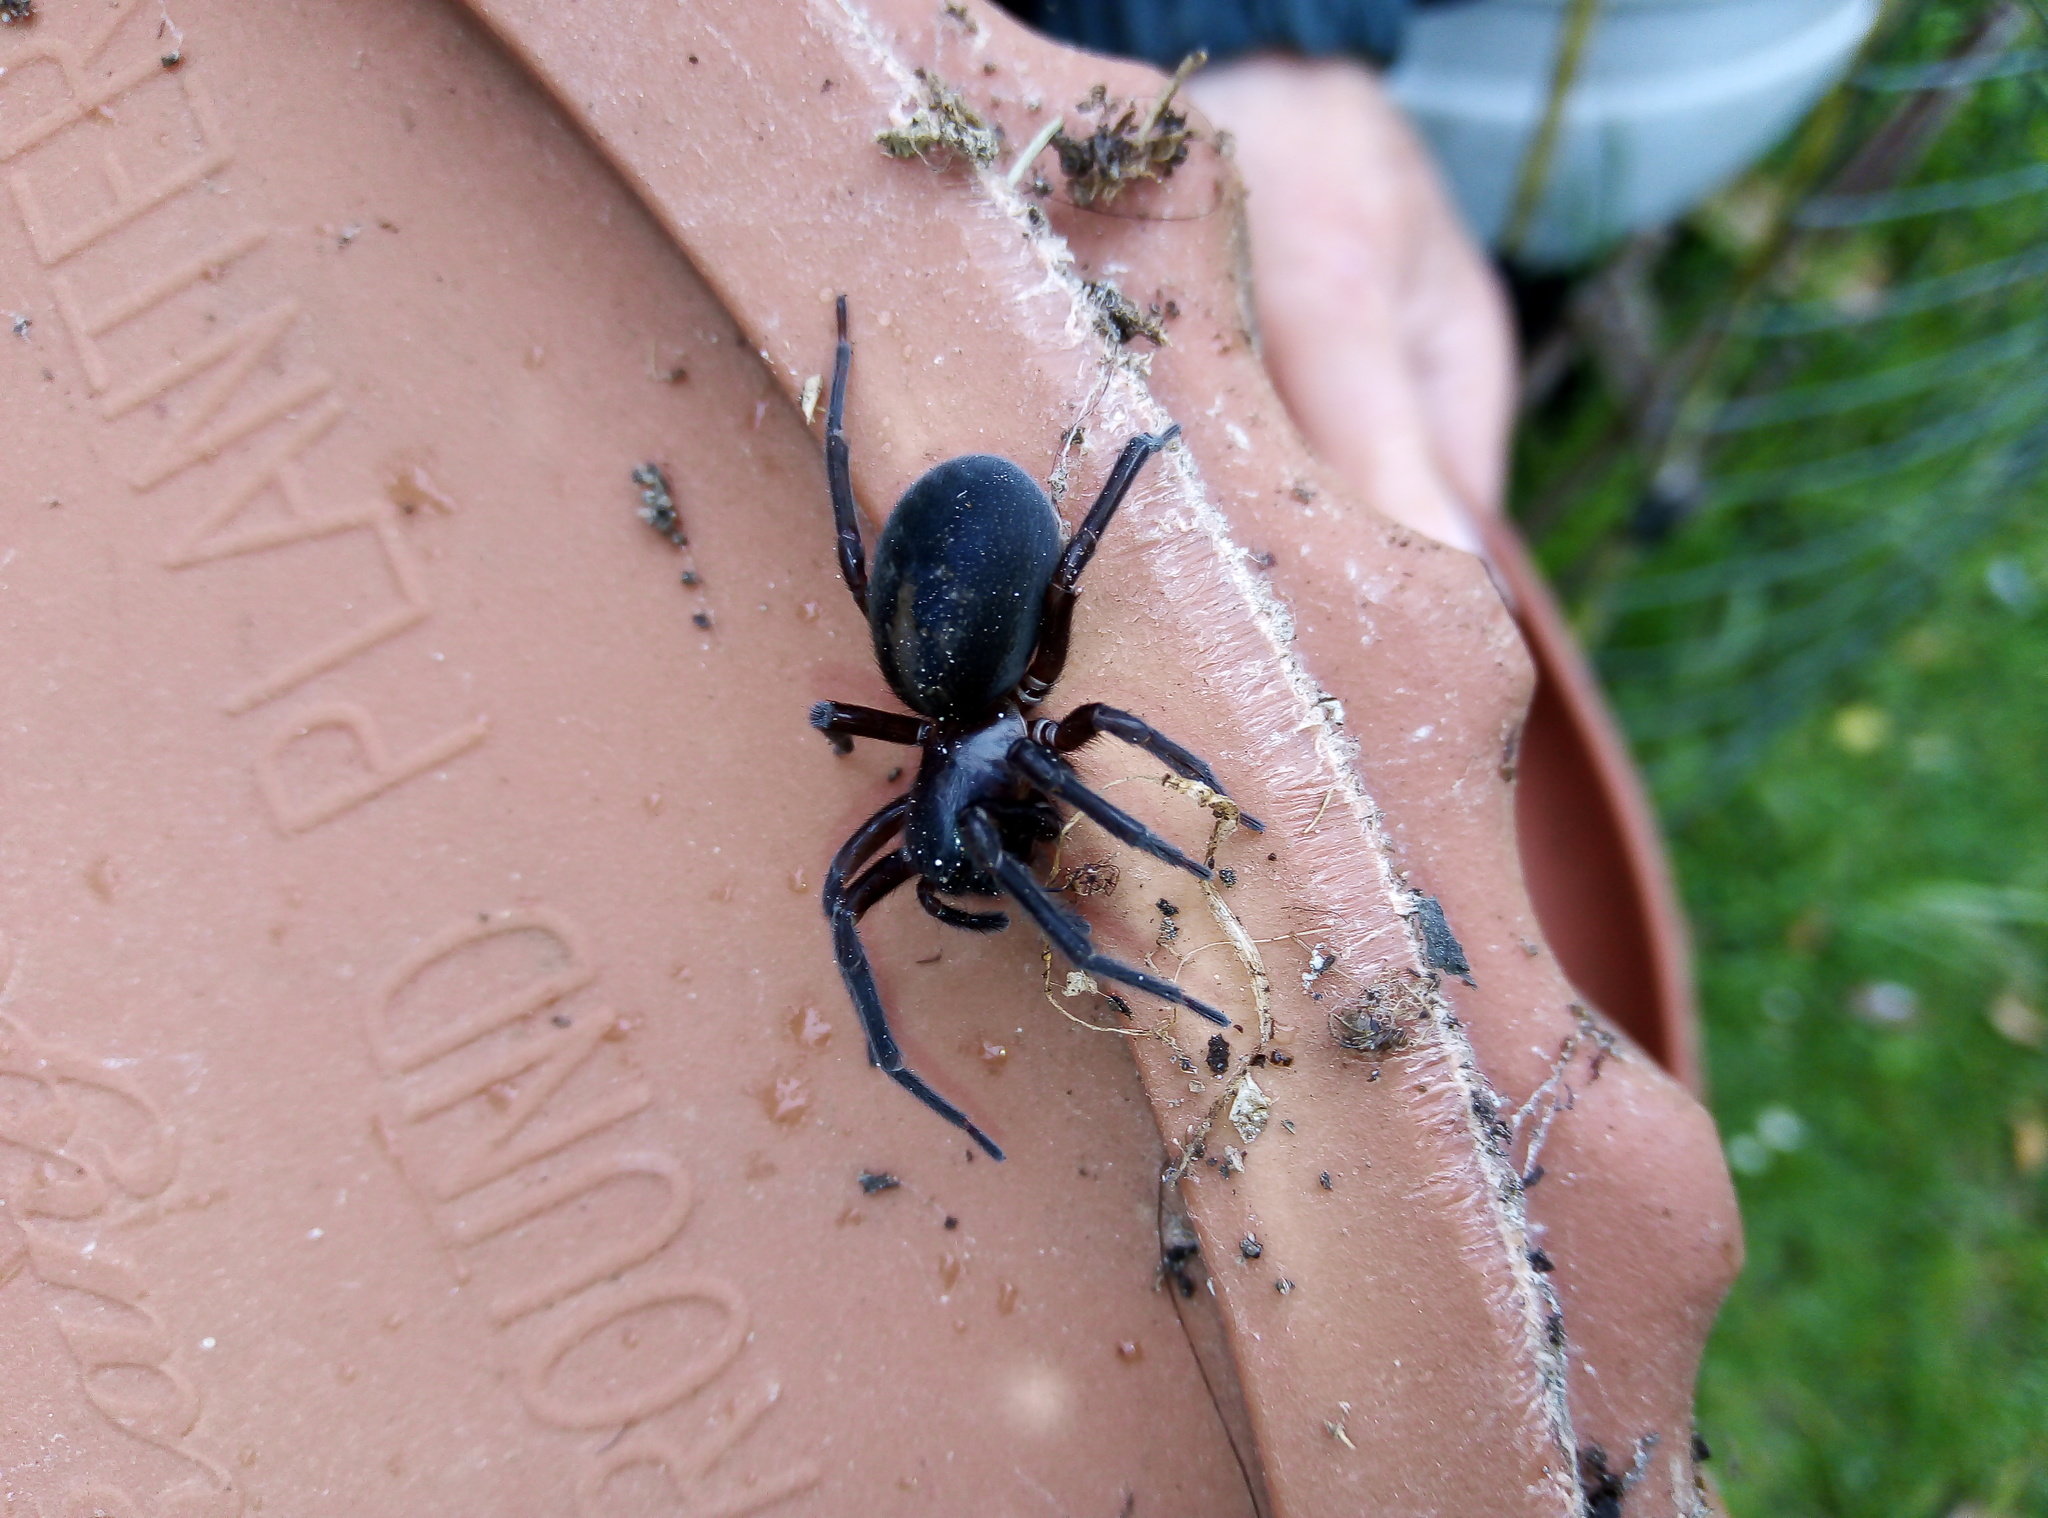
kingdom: Animalia
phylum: Arthropoda
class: Arachnida
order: Araneae
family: Amaurobiidae
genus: Amaurobius
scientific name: Amaurobius ferox
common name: Black laceweaver
